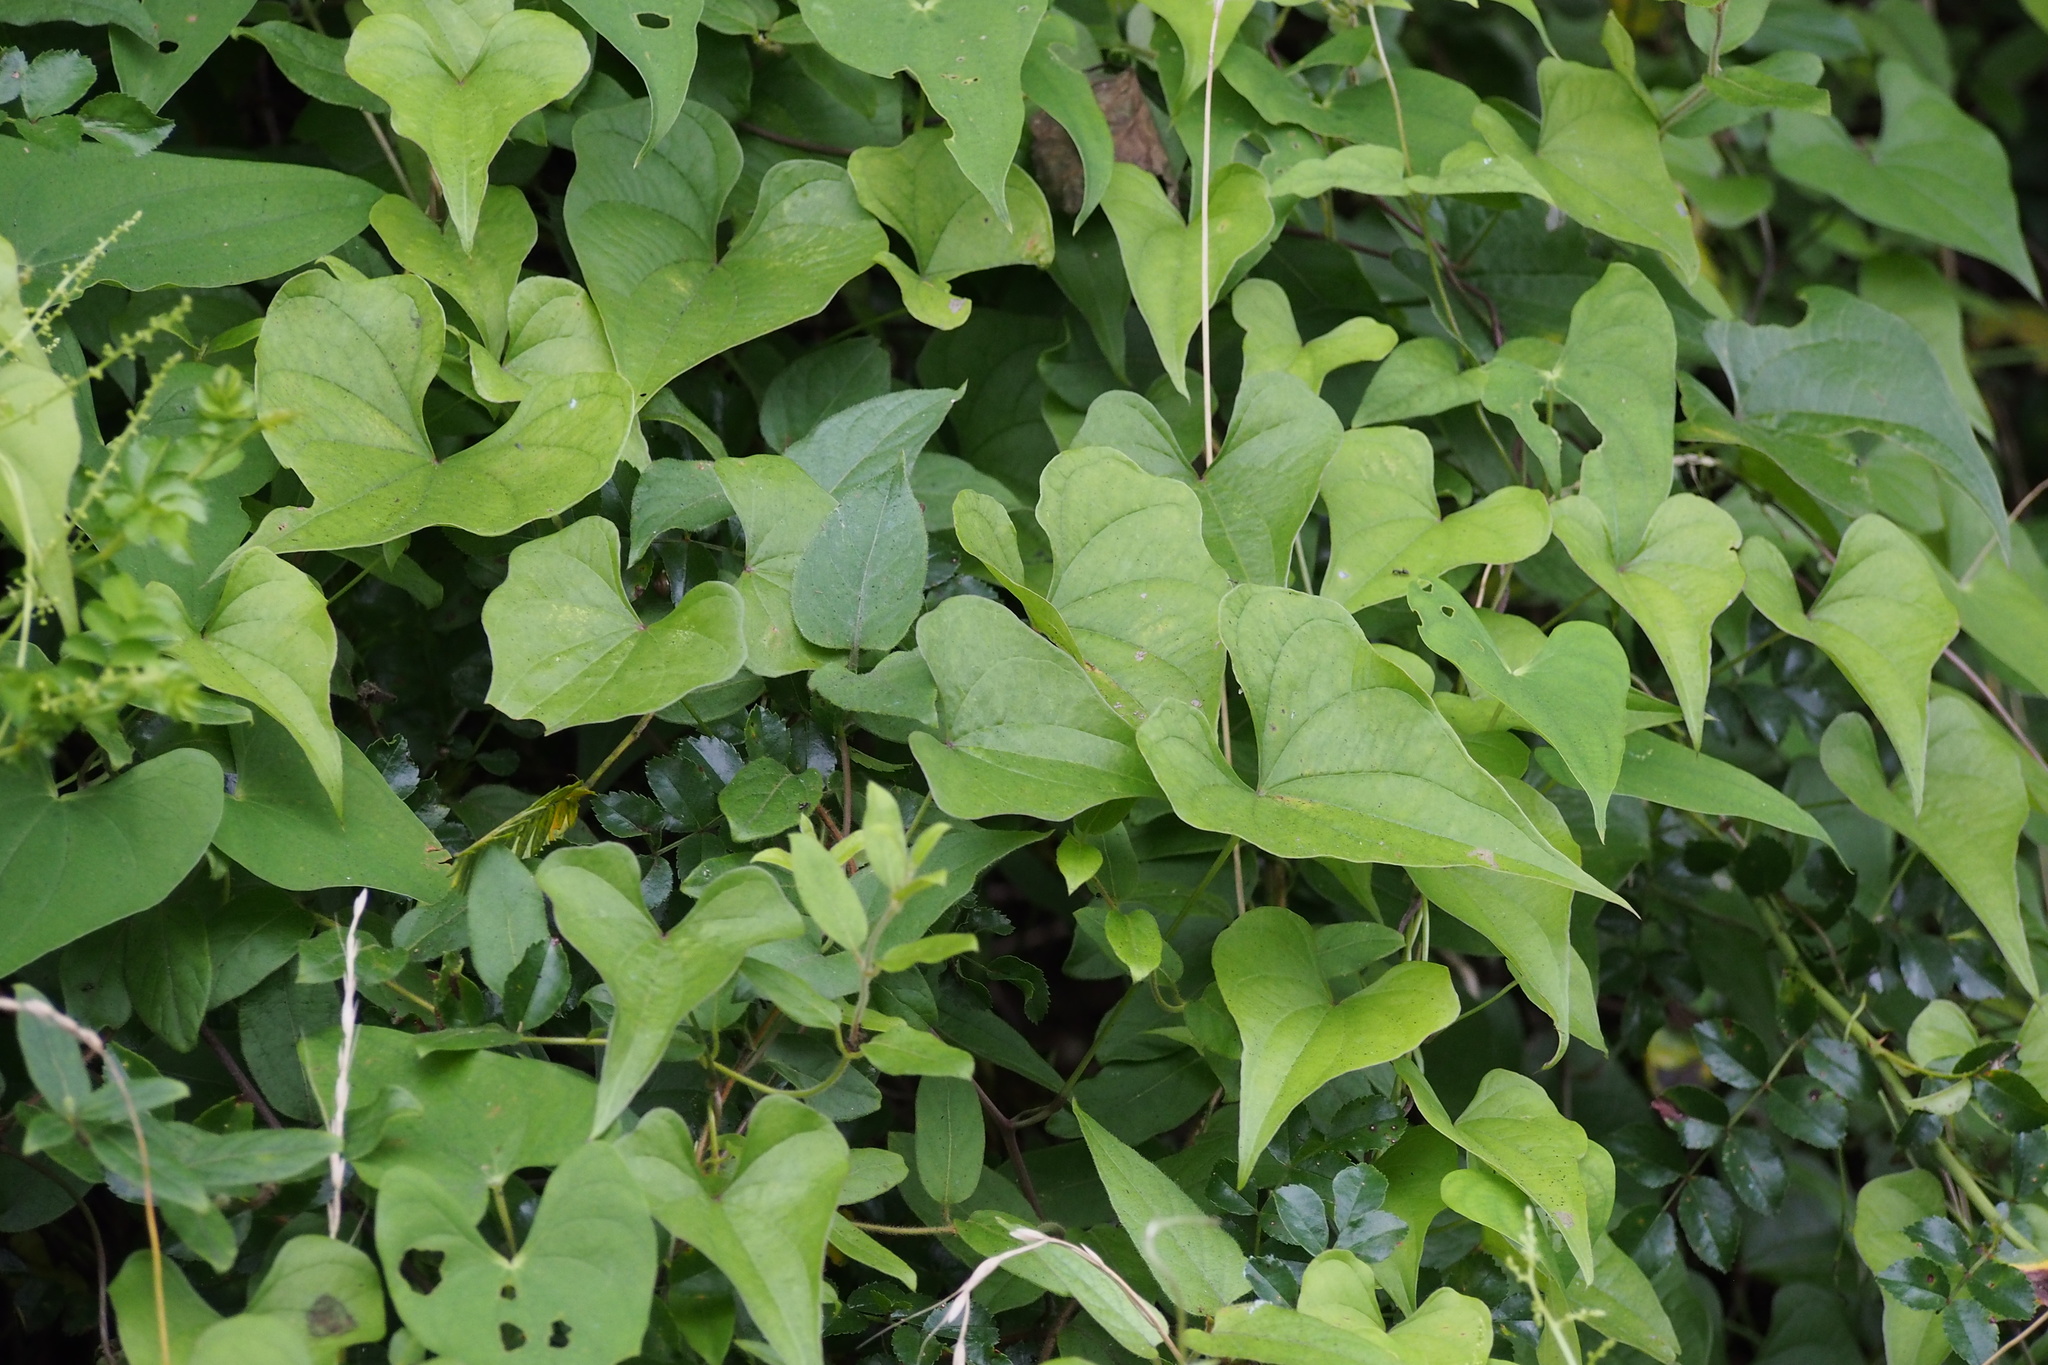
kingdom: Plantae
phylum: Tracheophyta
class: Liliopsida
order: Dioscoreales
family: Dioscoreaceae
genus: Dioscorea
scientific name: Dioscorea tokoro
